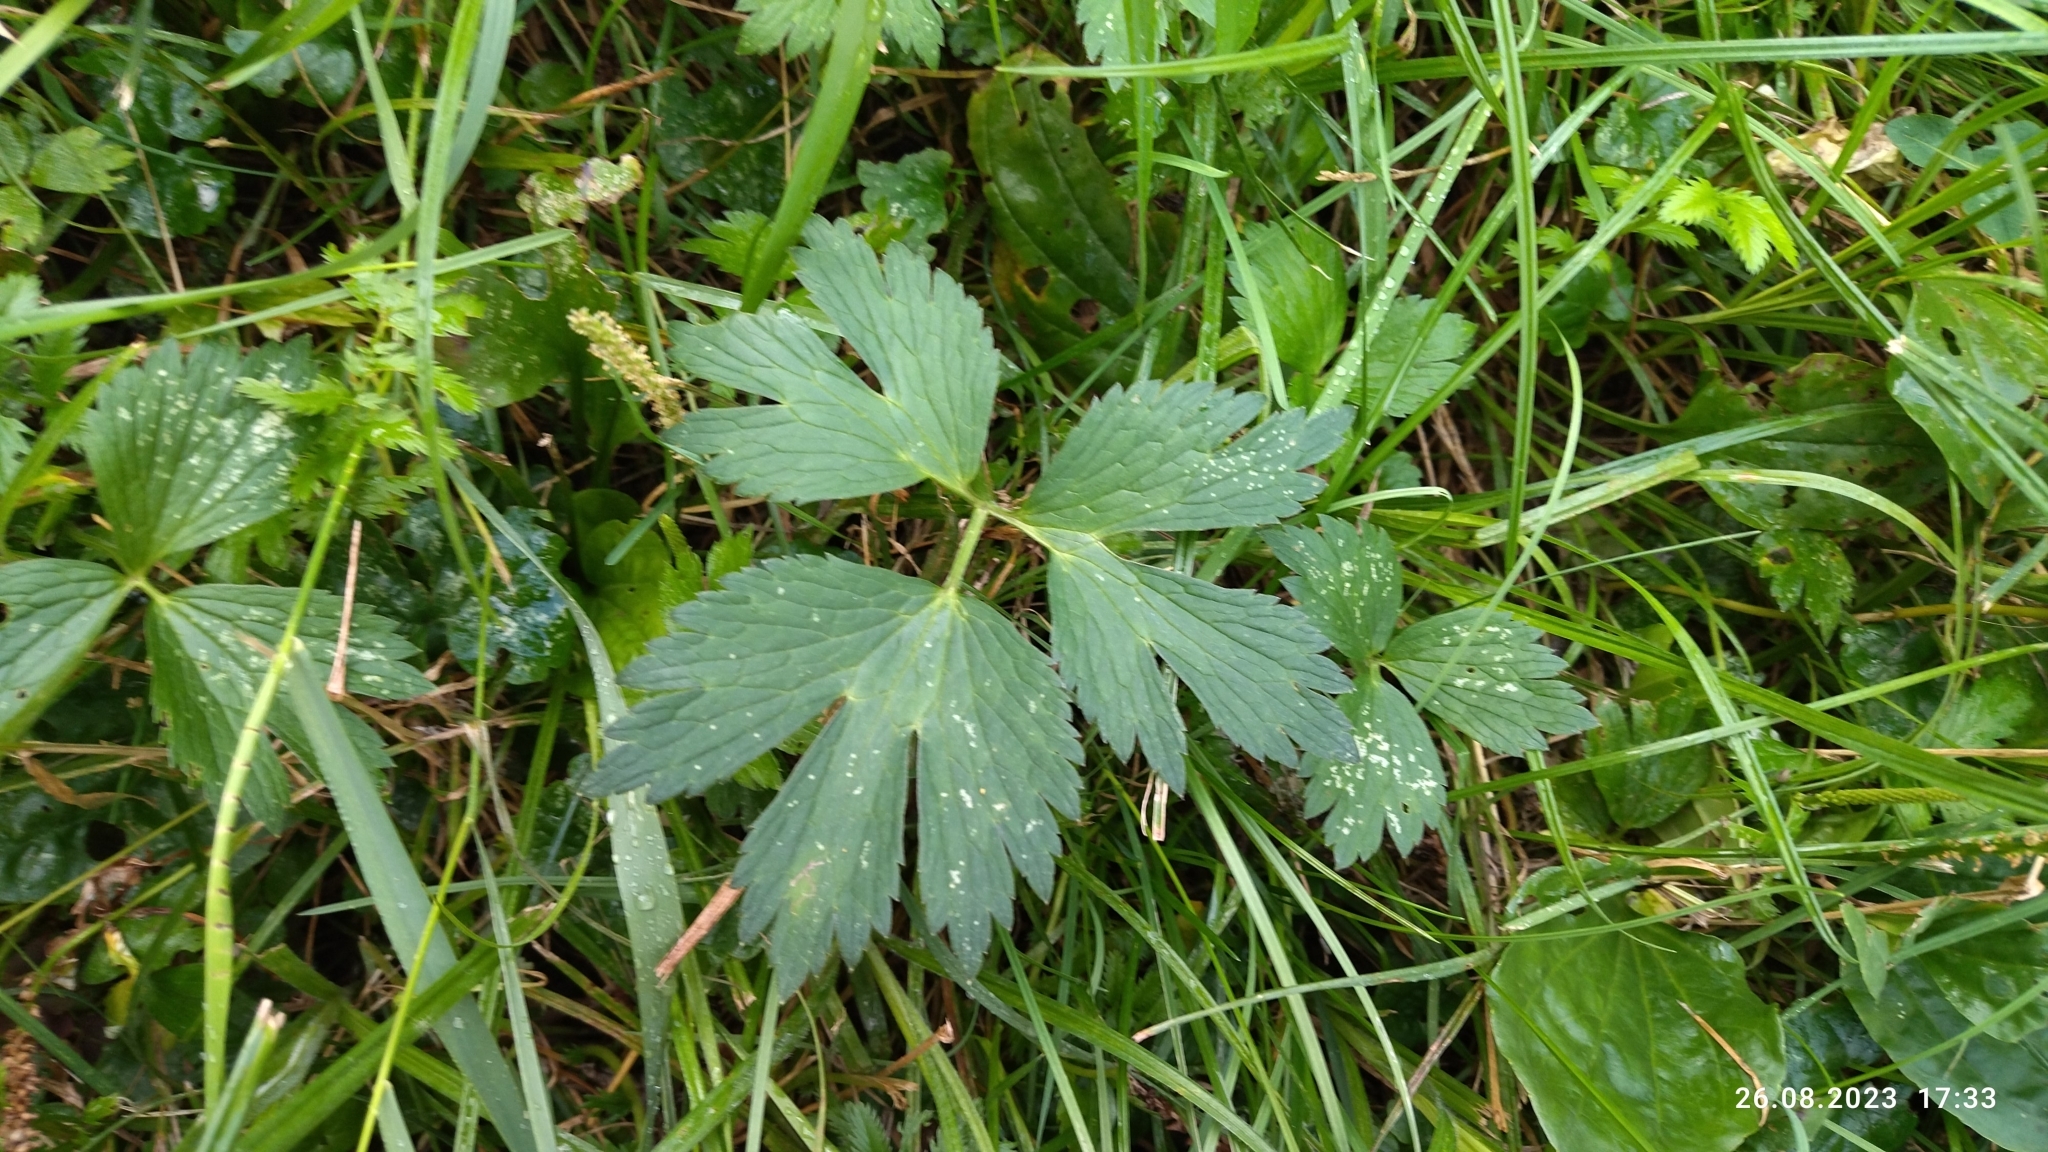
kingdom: Plantae
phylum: Tracheophyta
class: Magnoliopsida
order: Ranunculales
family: Ranunculaceae
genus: Ranunculus
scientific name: Ranunculus repens
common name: Creeping buttercup
